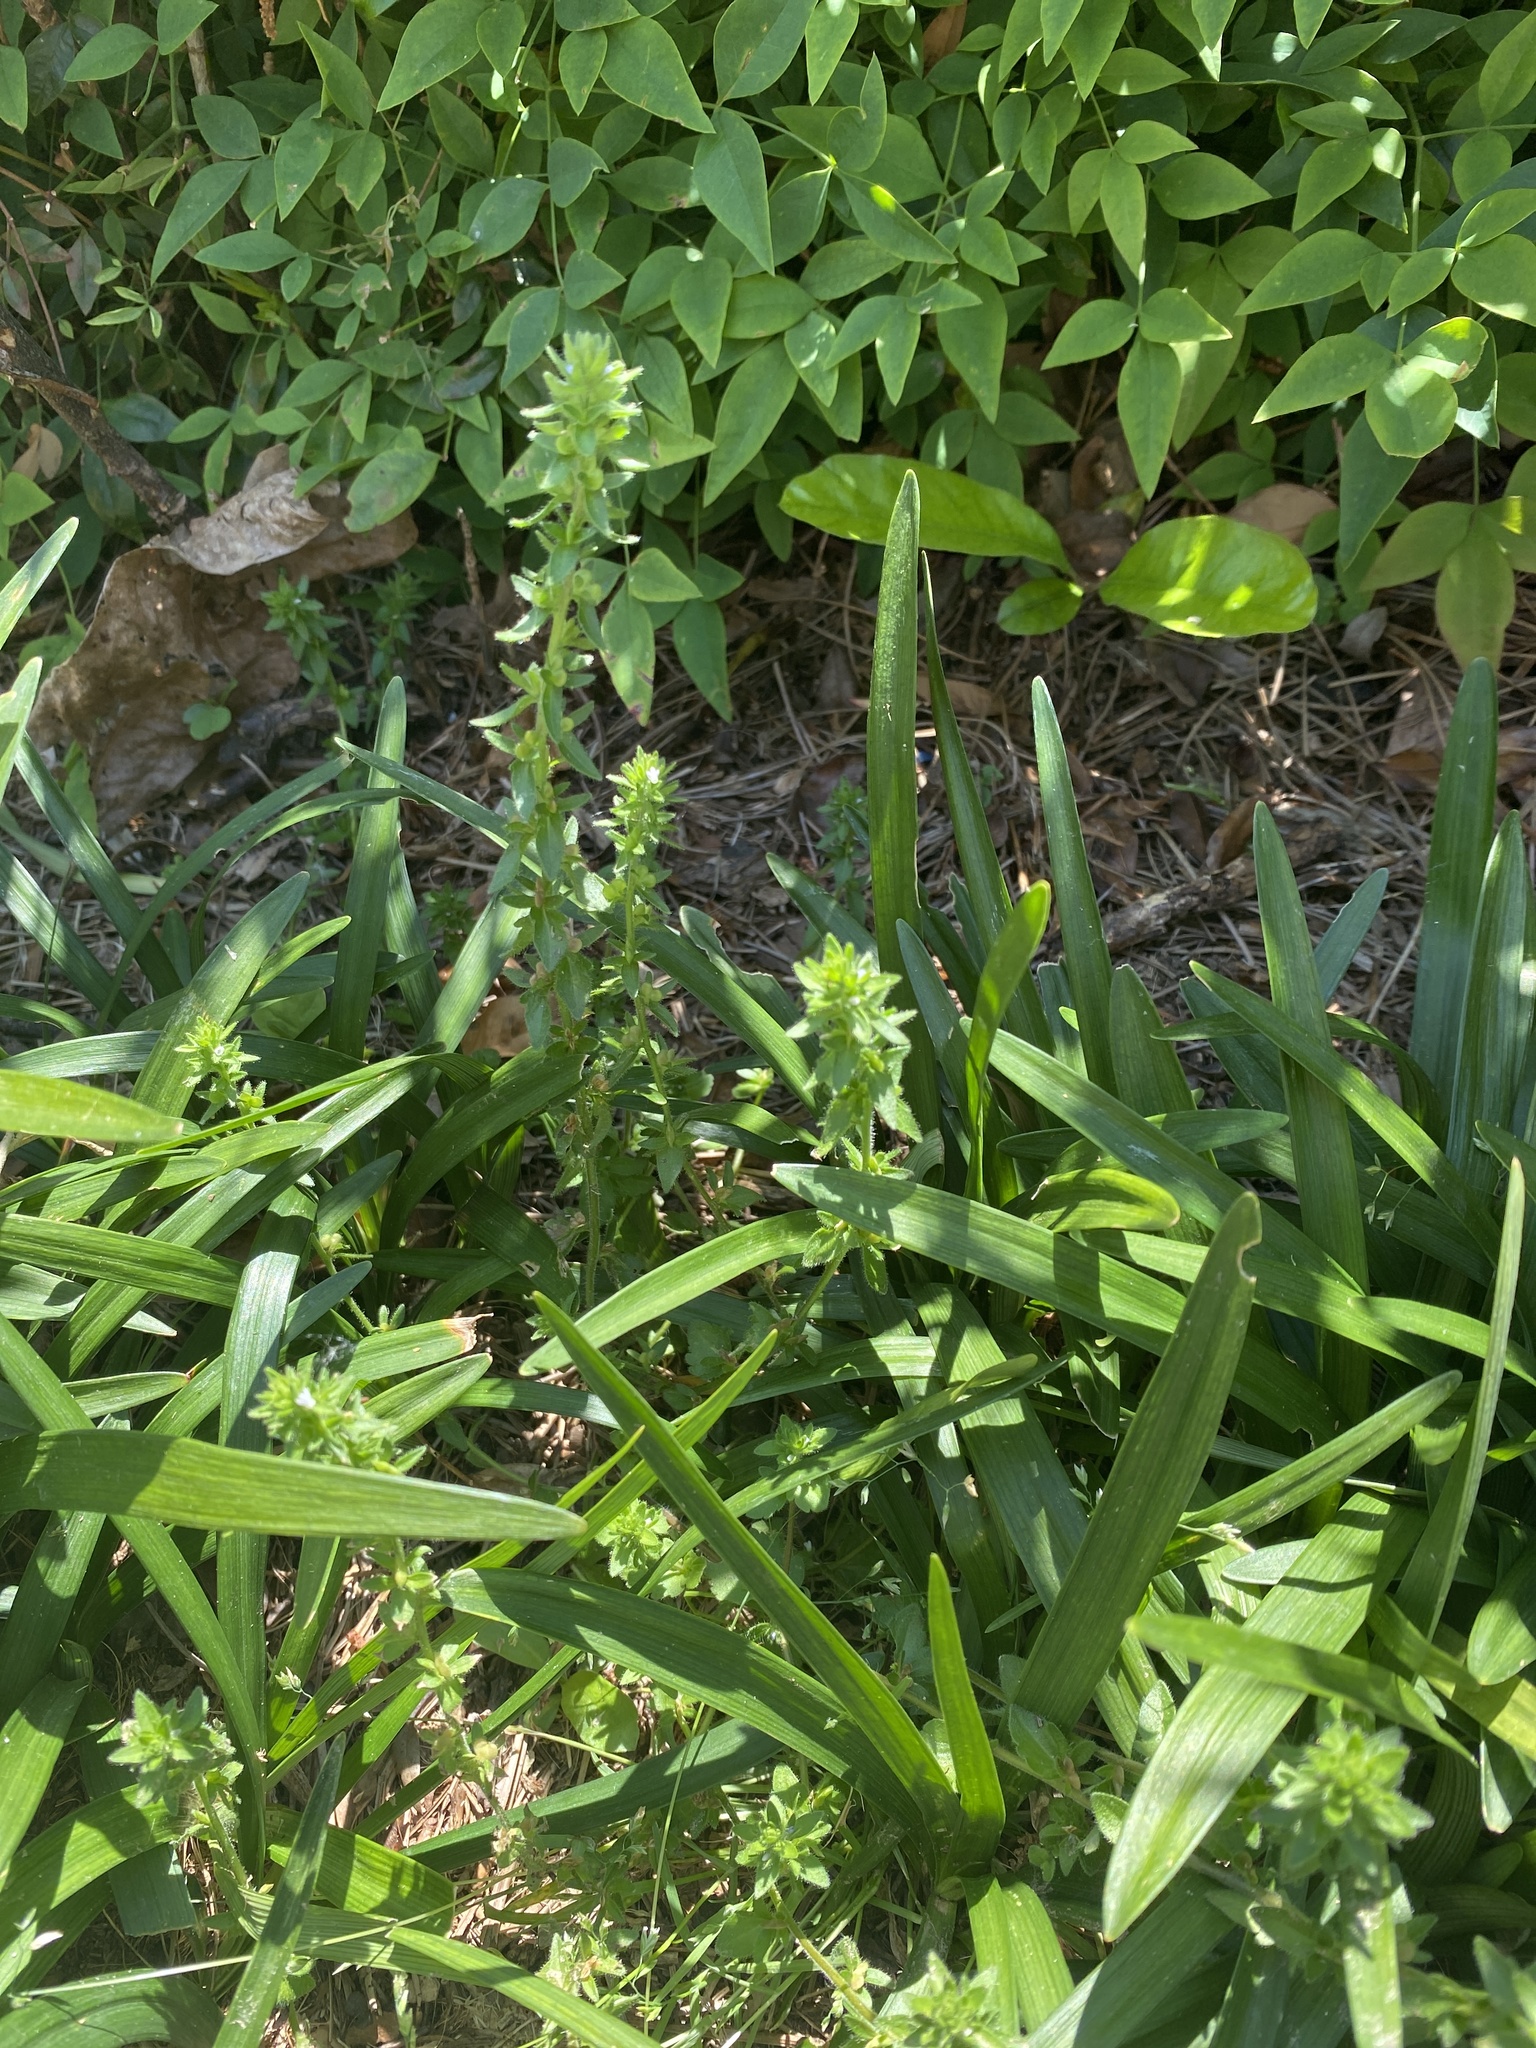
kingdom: Plantae
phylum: Tracheophyta
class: Magnoliopsida
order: Lamiales
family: Plantaginaceae
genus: Veronica
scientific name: Veronica arvensis
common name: Corn speedwell
